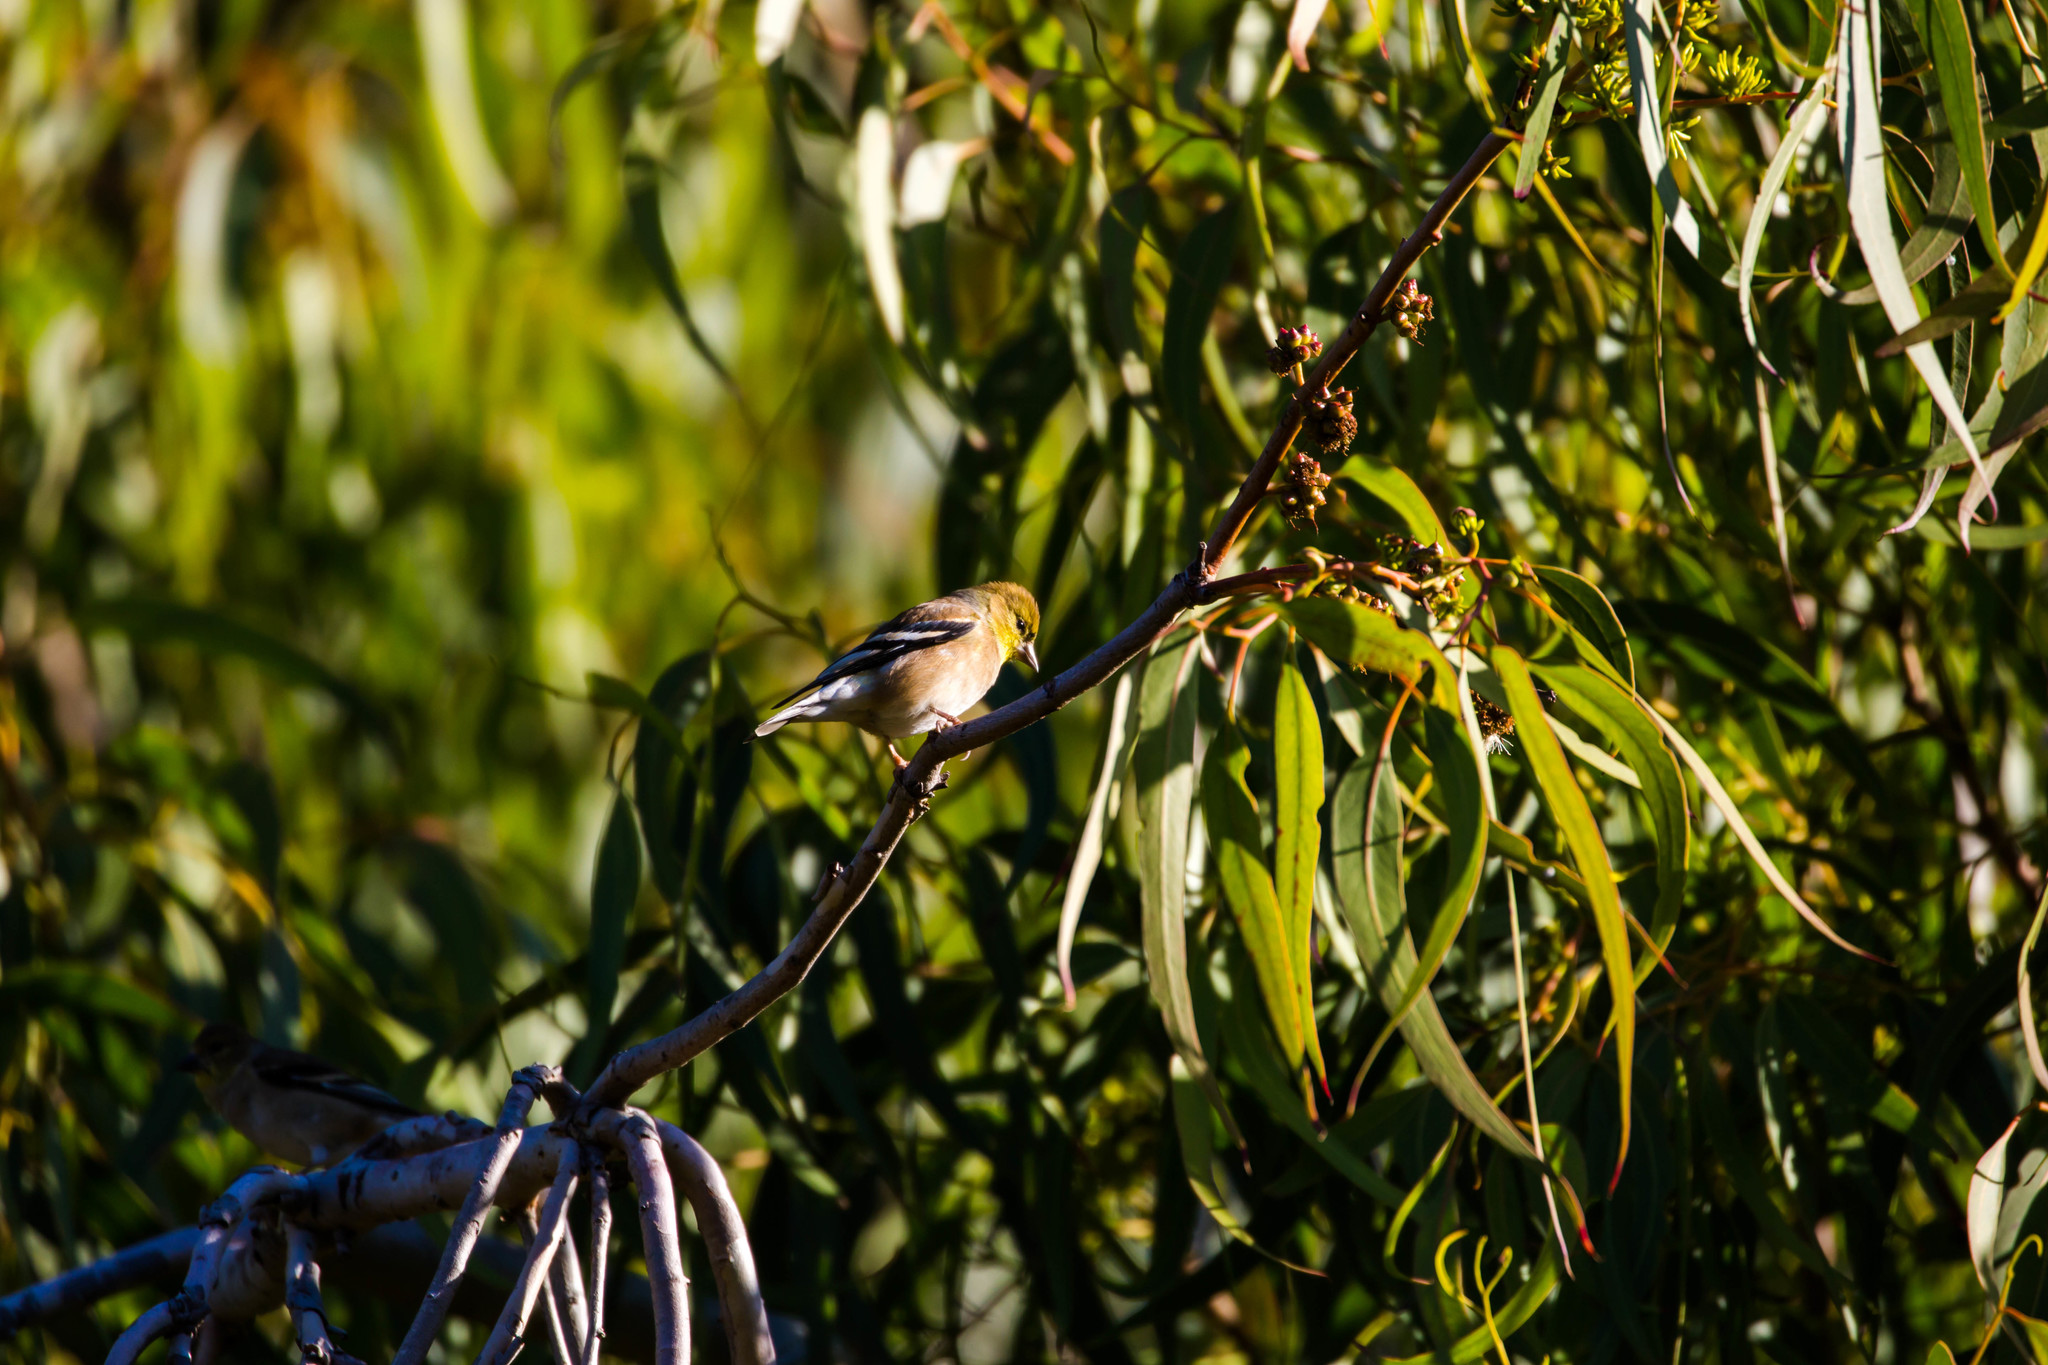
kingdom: Animalia
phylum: Chordata
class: Aves
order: Passeriformes
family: Fringillidae
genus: Spinus
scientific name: Spinus tristis
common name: American goldfinch
